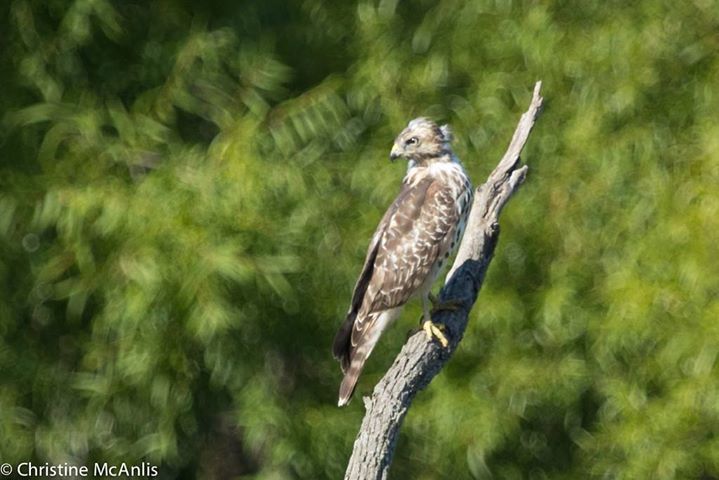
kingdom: Animalia
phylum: Chordata
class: Aves
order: Accipitriformes
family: Accipitridae
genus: Buteo
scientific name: Buteo lineatus
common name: Red-shouldered hawk
